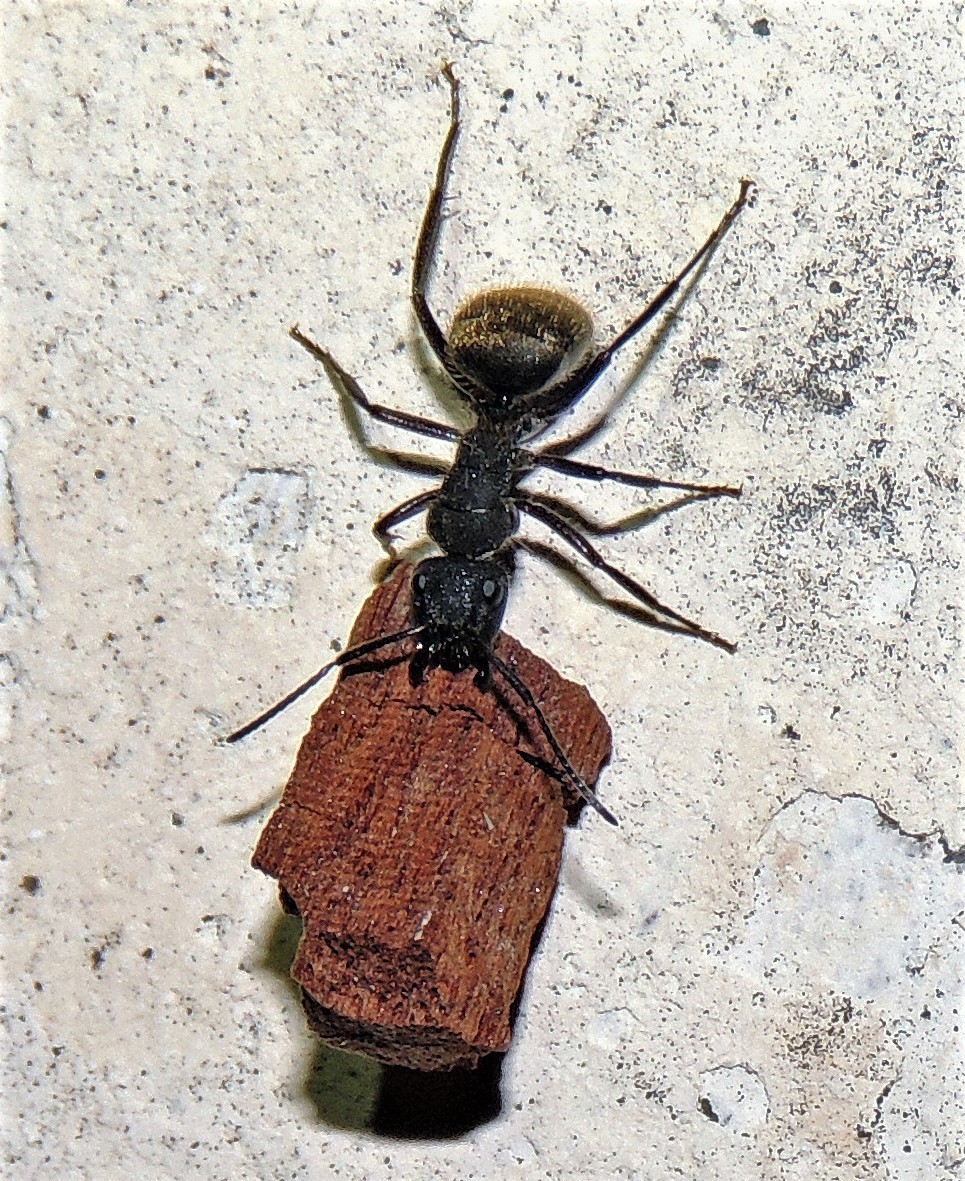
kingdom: Animalia
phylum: Arthropoda
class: Insecta
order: Hymenoptera
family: Formicidae
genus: Camponotus
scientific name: Camponotus mus
